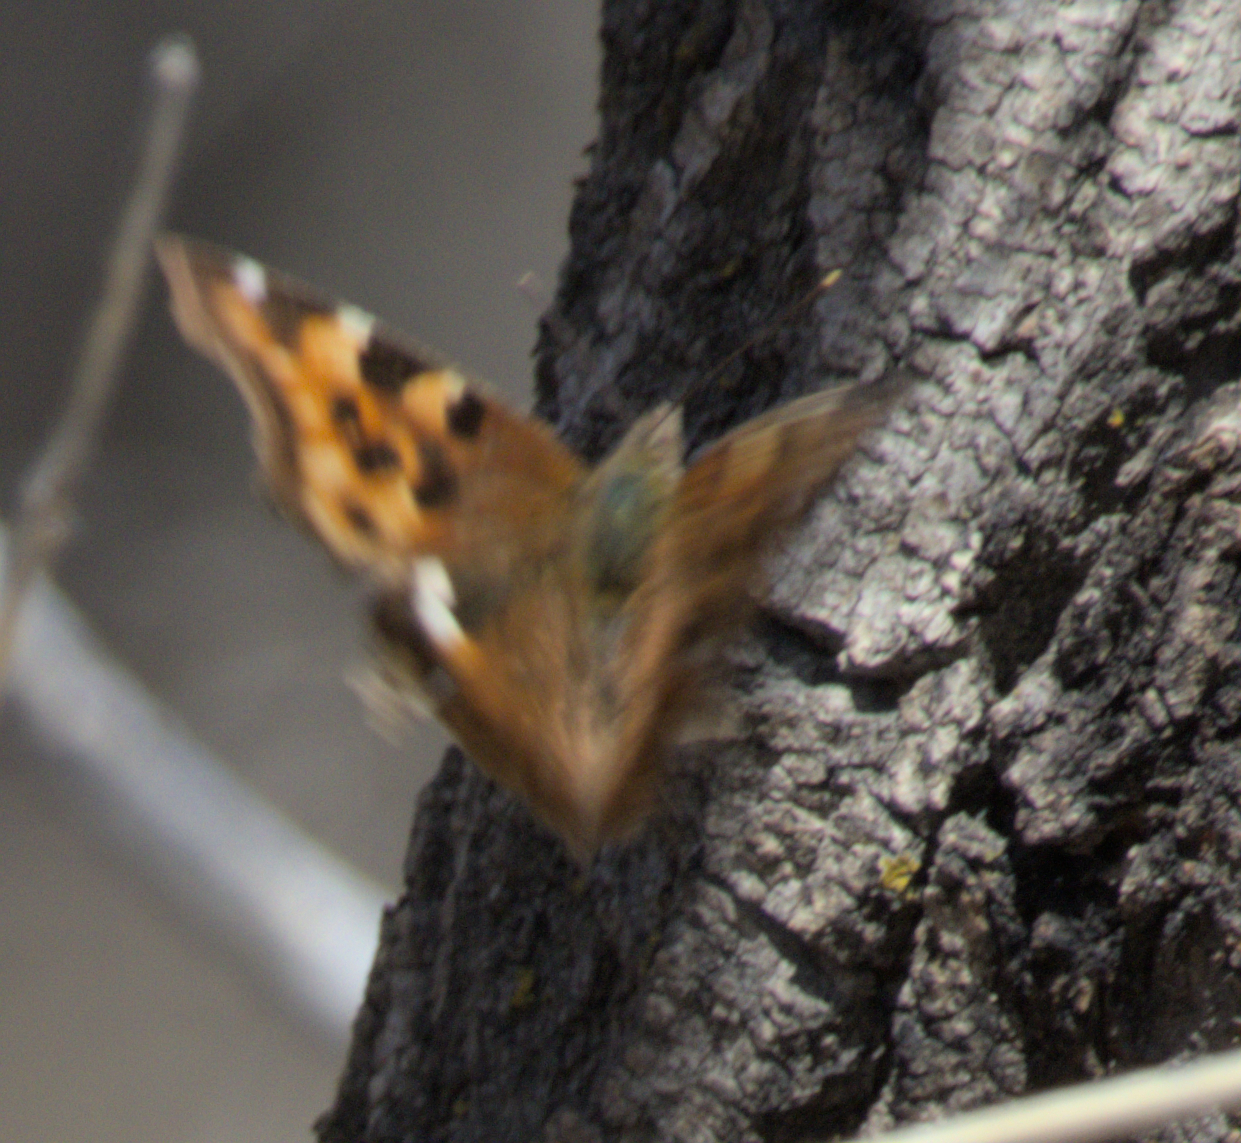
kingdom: Animalia
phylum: Arthropoda
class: Insecta
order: Lepidoptera
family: Nymphalidae
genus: Polygonia
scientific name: Polygonia vaualbum
